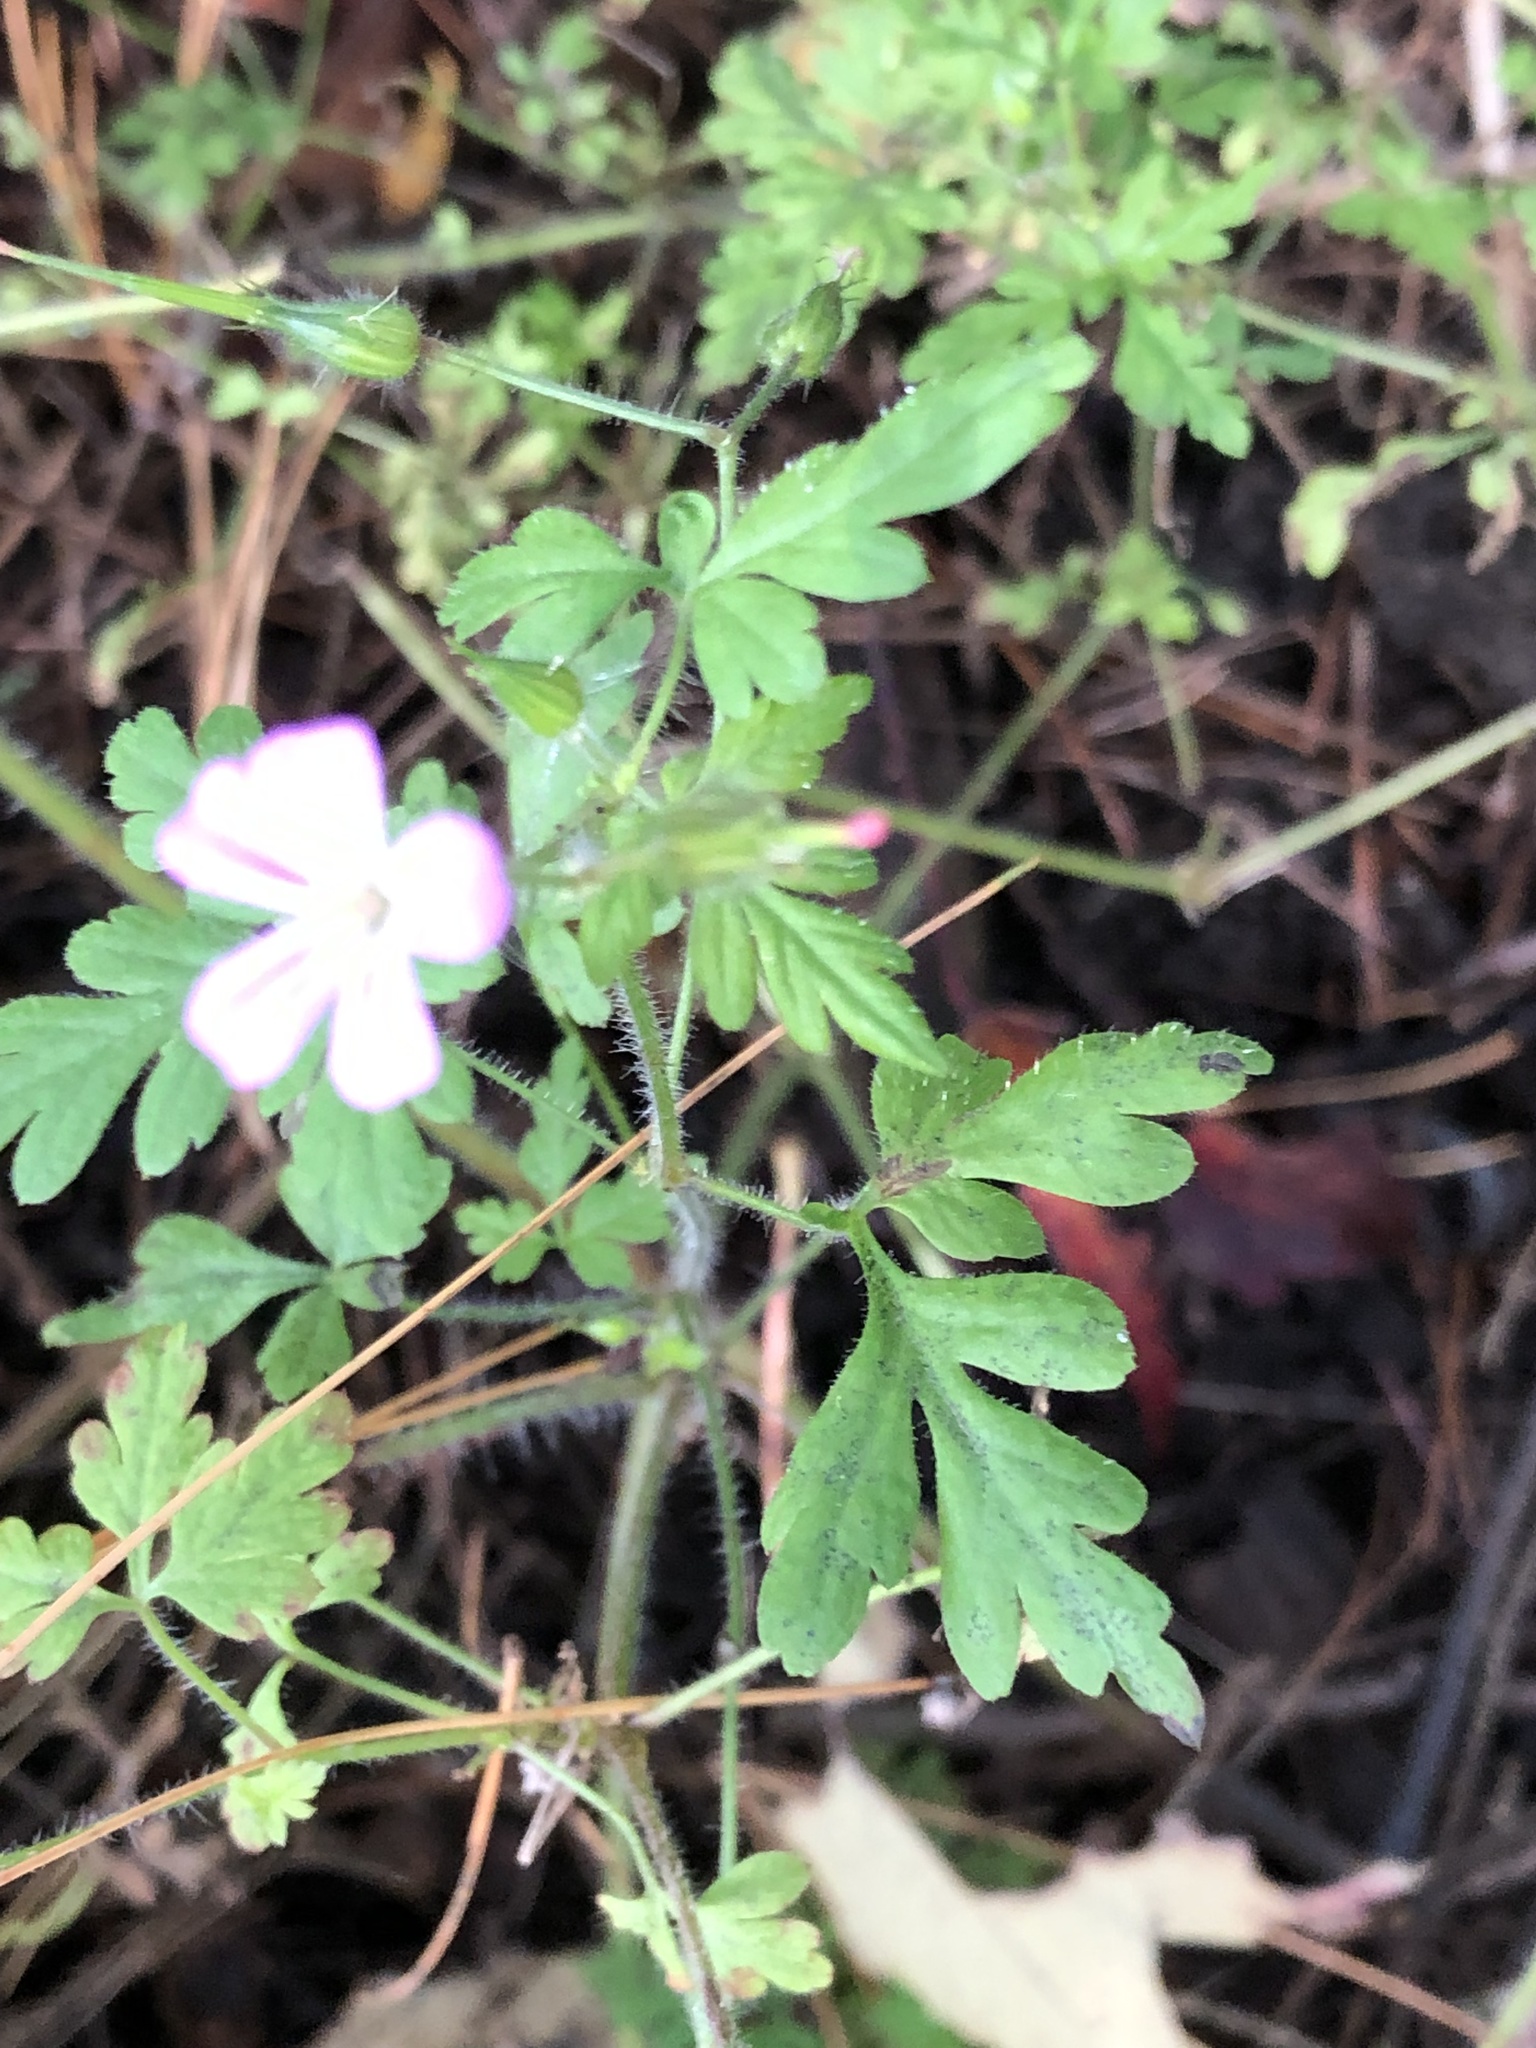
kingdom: Plantae
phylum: Tracheophyta
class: Magnoliopsida
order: Geraniales
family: Geraniaceae
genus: Geranium
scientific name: Geranium robertianum
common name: Herb-robert
